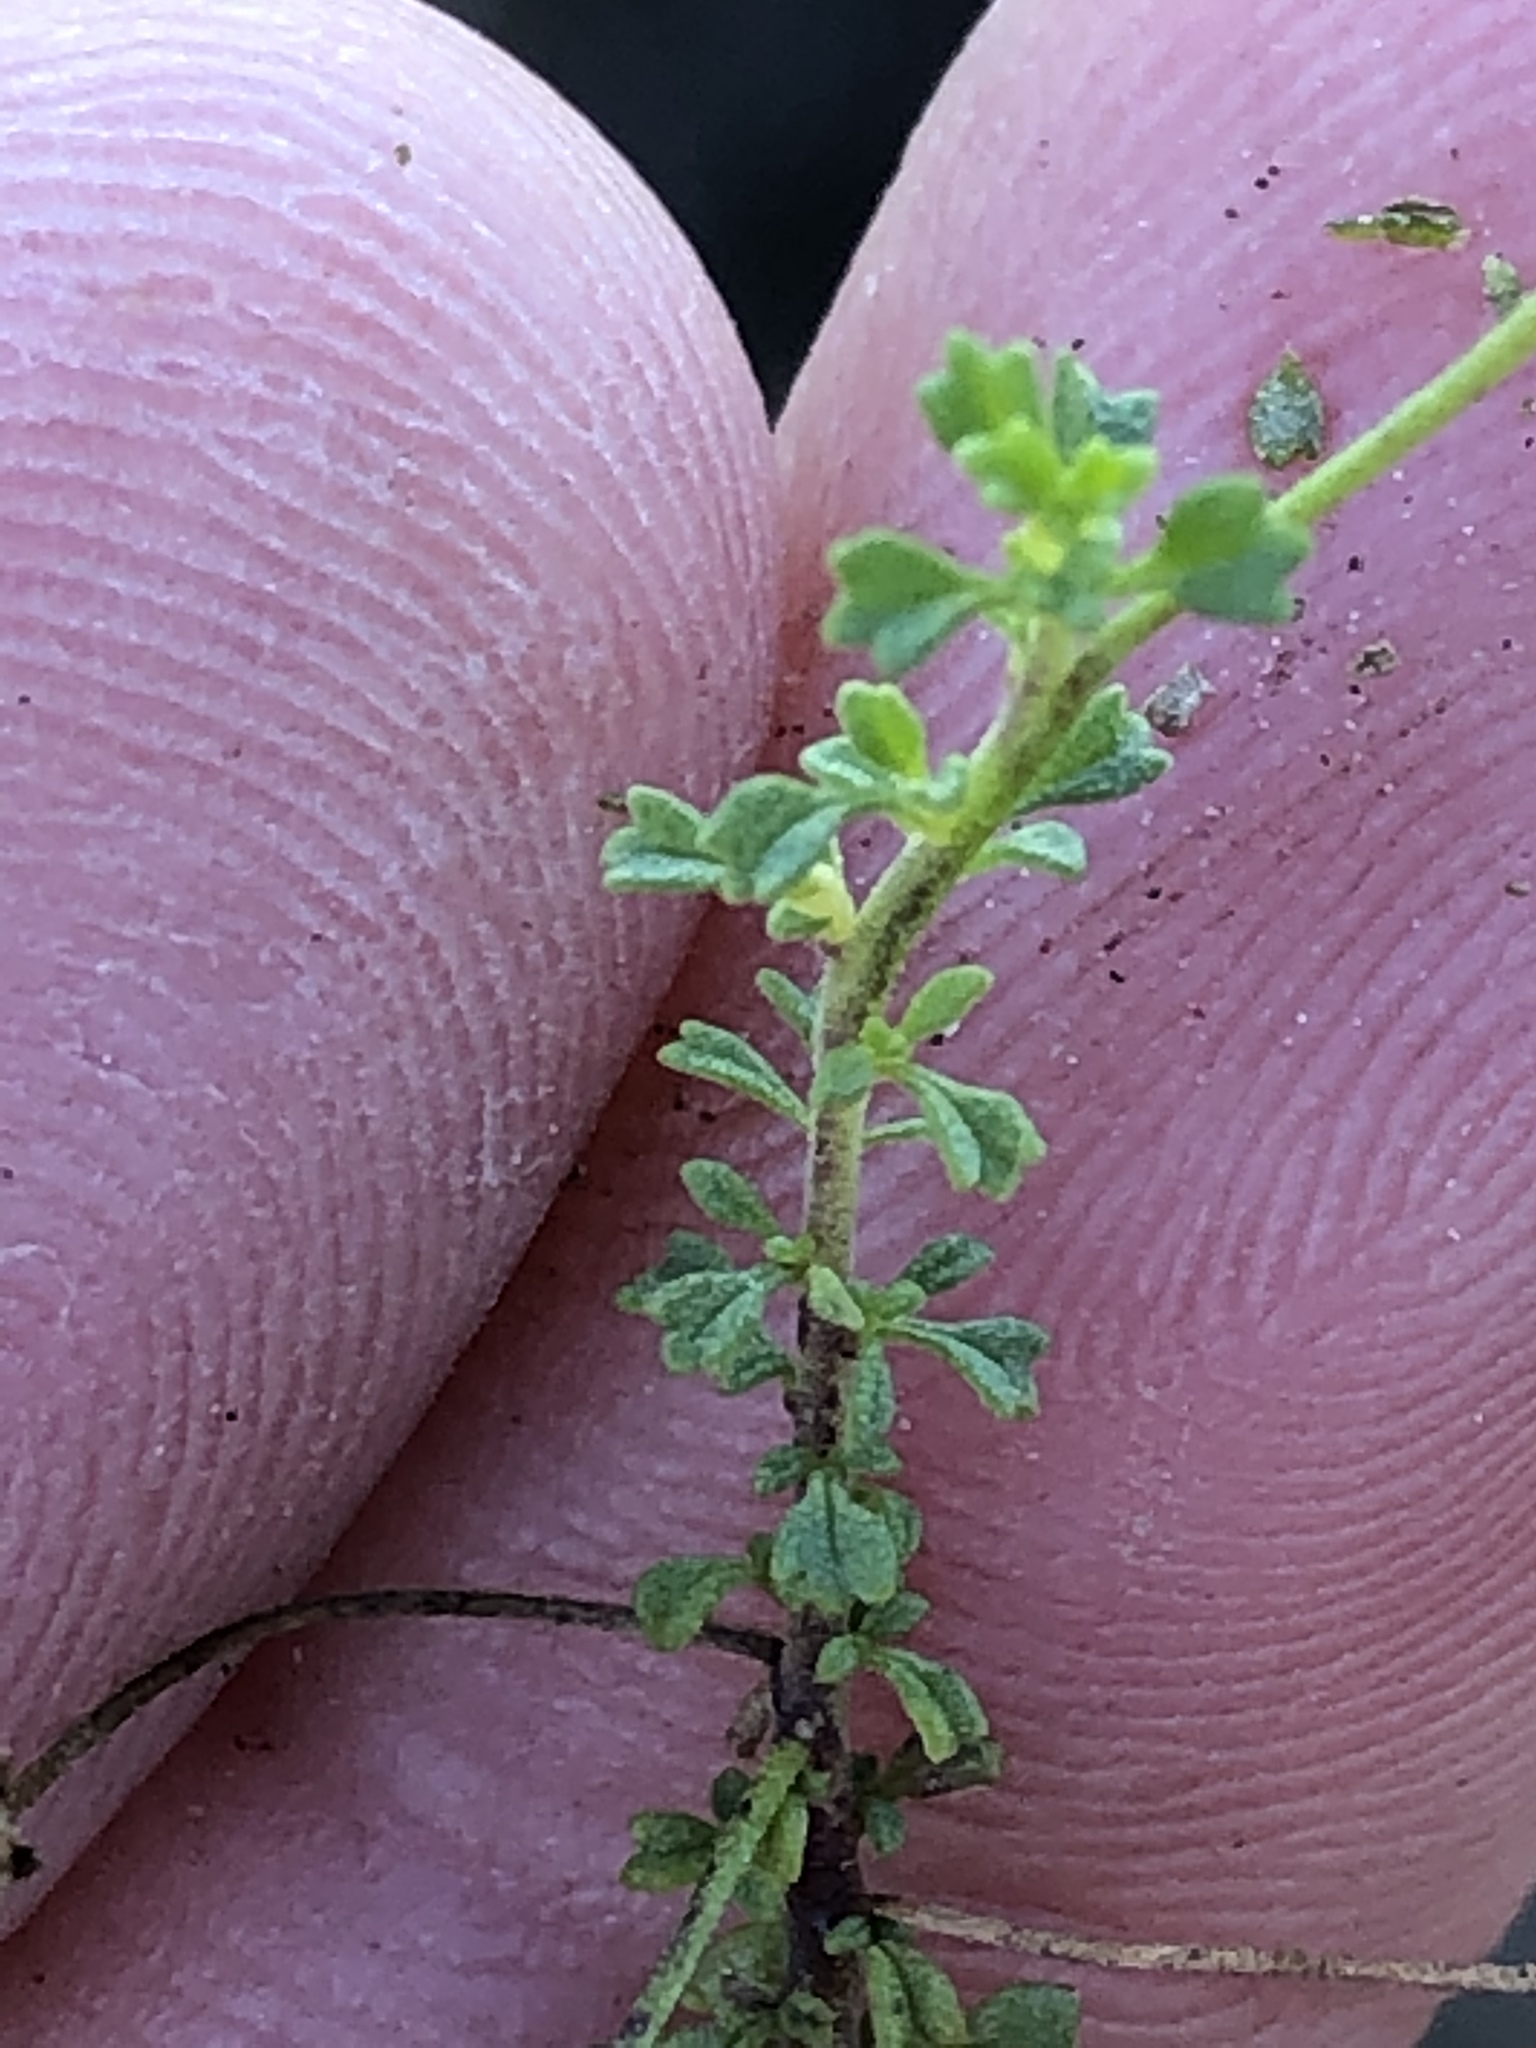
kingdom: Plantae
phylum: Tracheophyta
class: Magnoliopsida
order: Lamiales
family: Scrophulariaceae
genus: Jamesbrittenia
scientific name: Jamesbrittenia argentea
